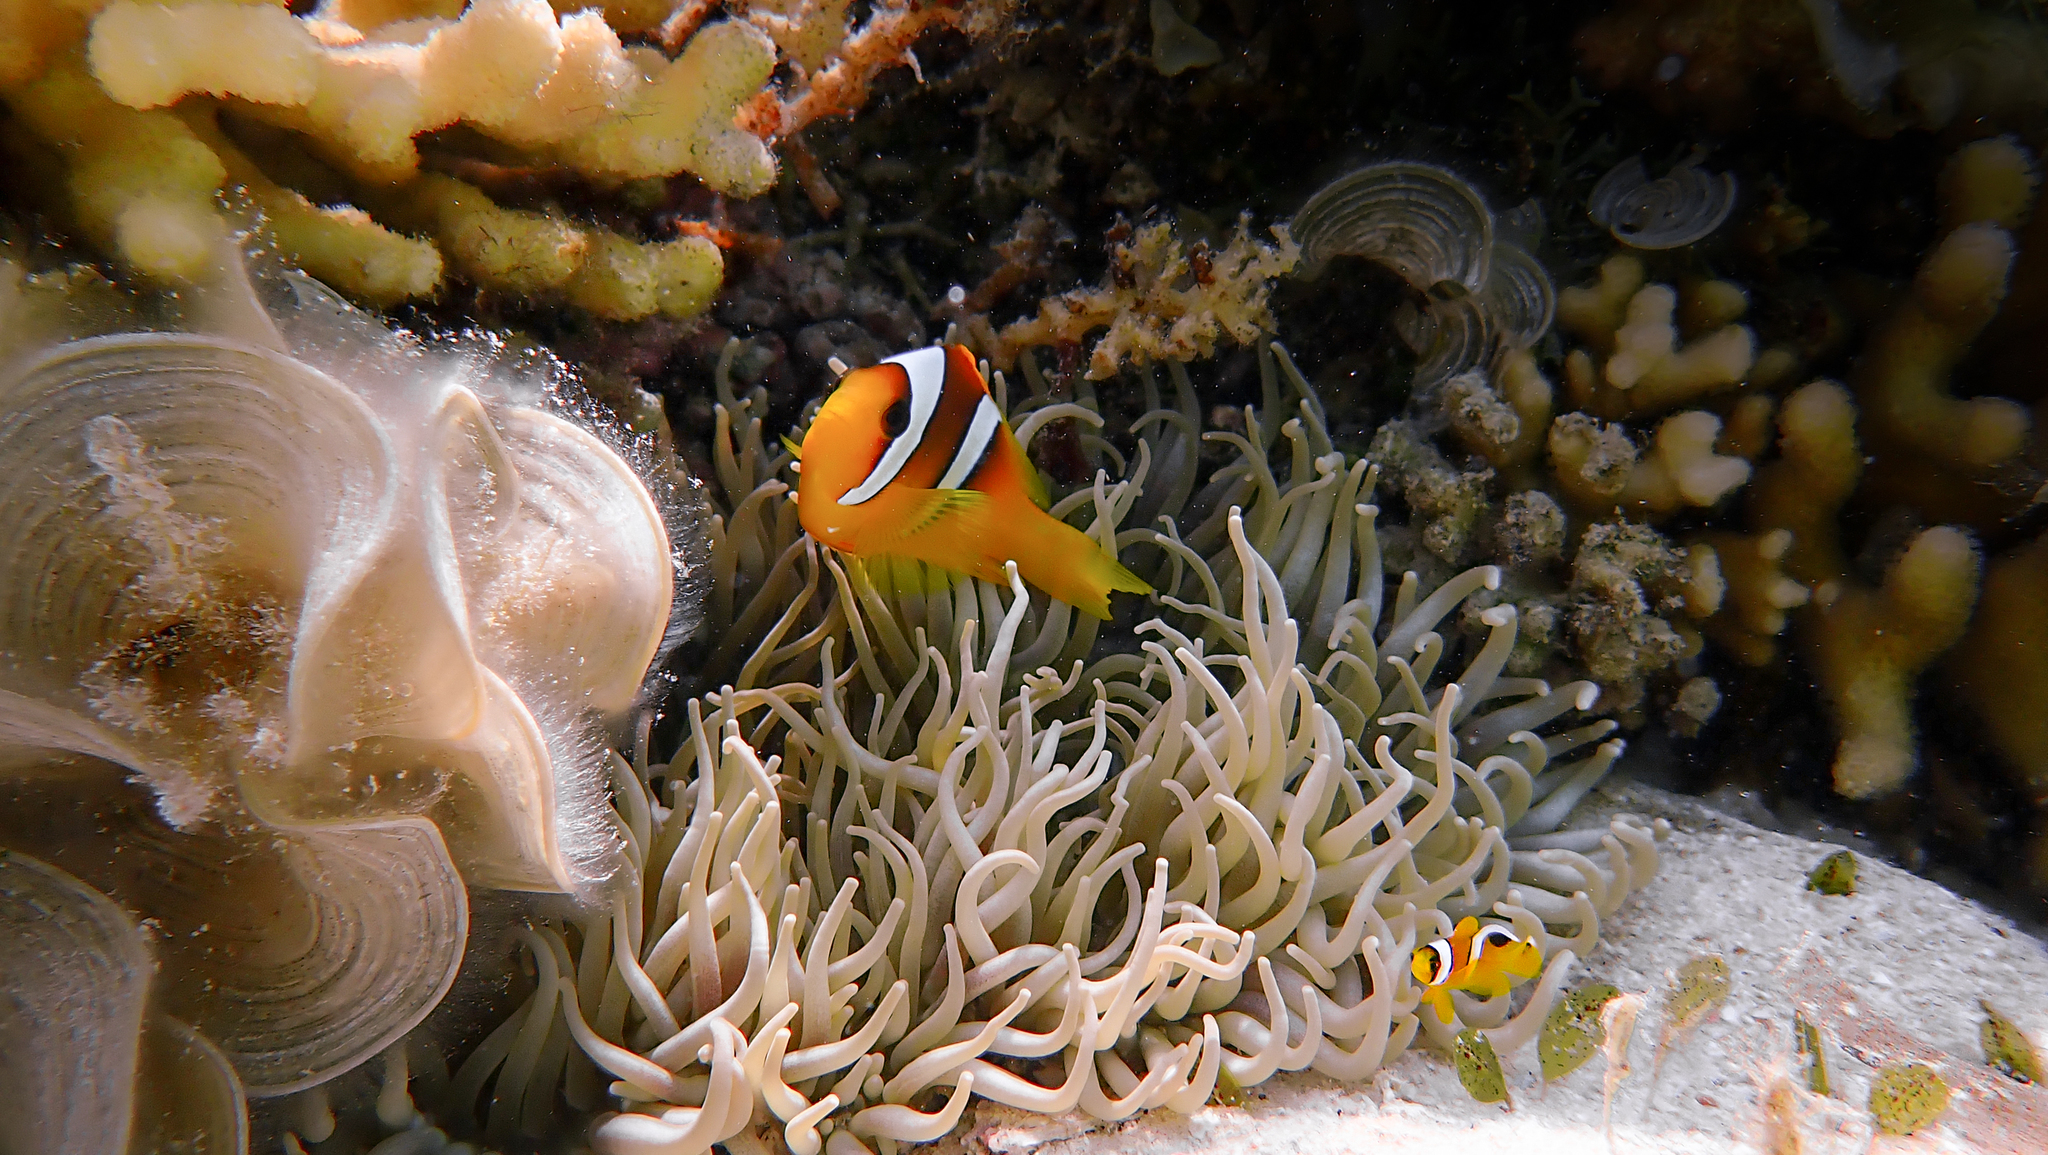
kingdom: Animalia
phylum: Chordata
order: Perciformes
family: Pomacentridae
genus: Amphiprion
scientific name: Amphiprion bicinctus
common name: Two-banded anemonefish
